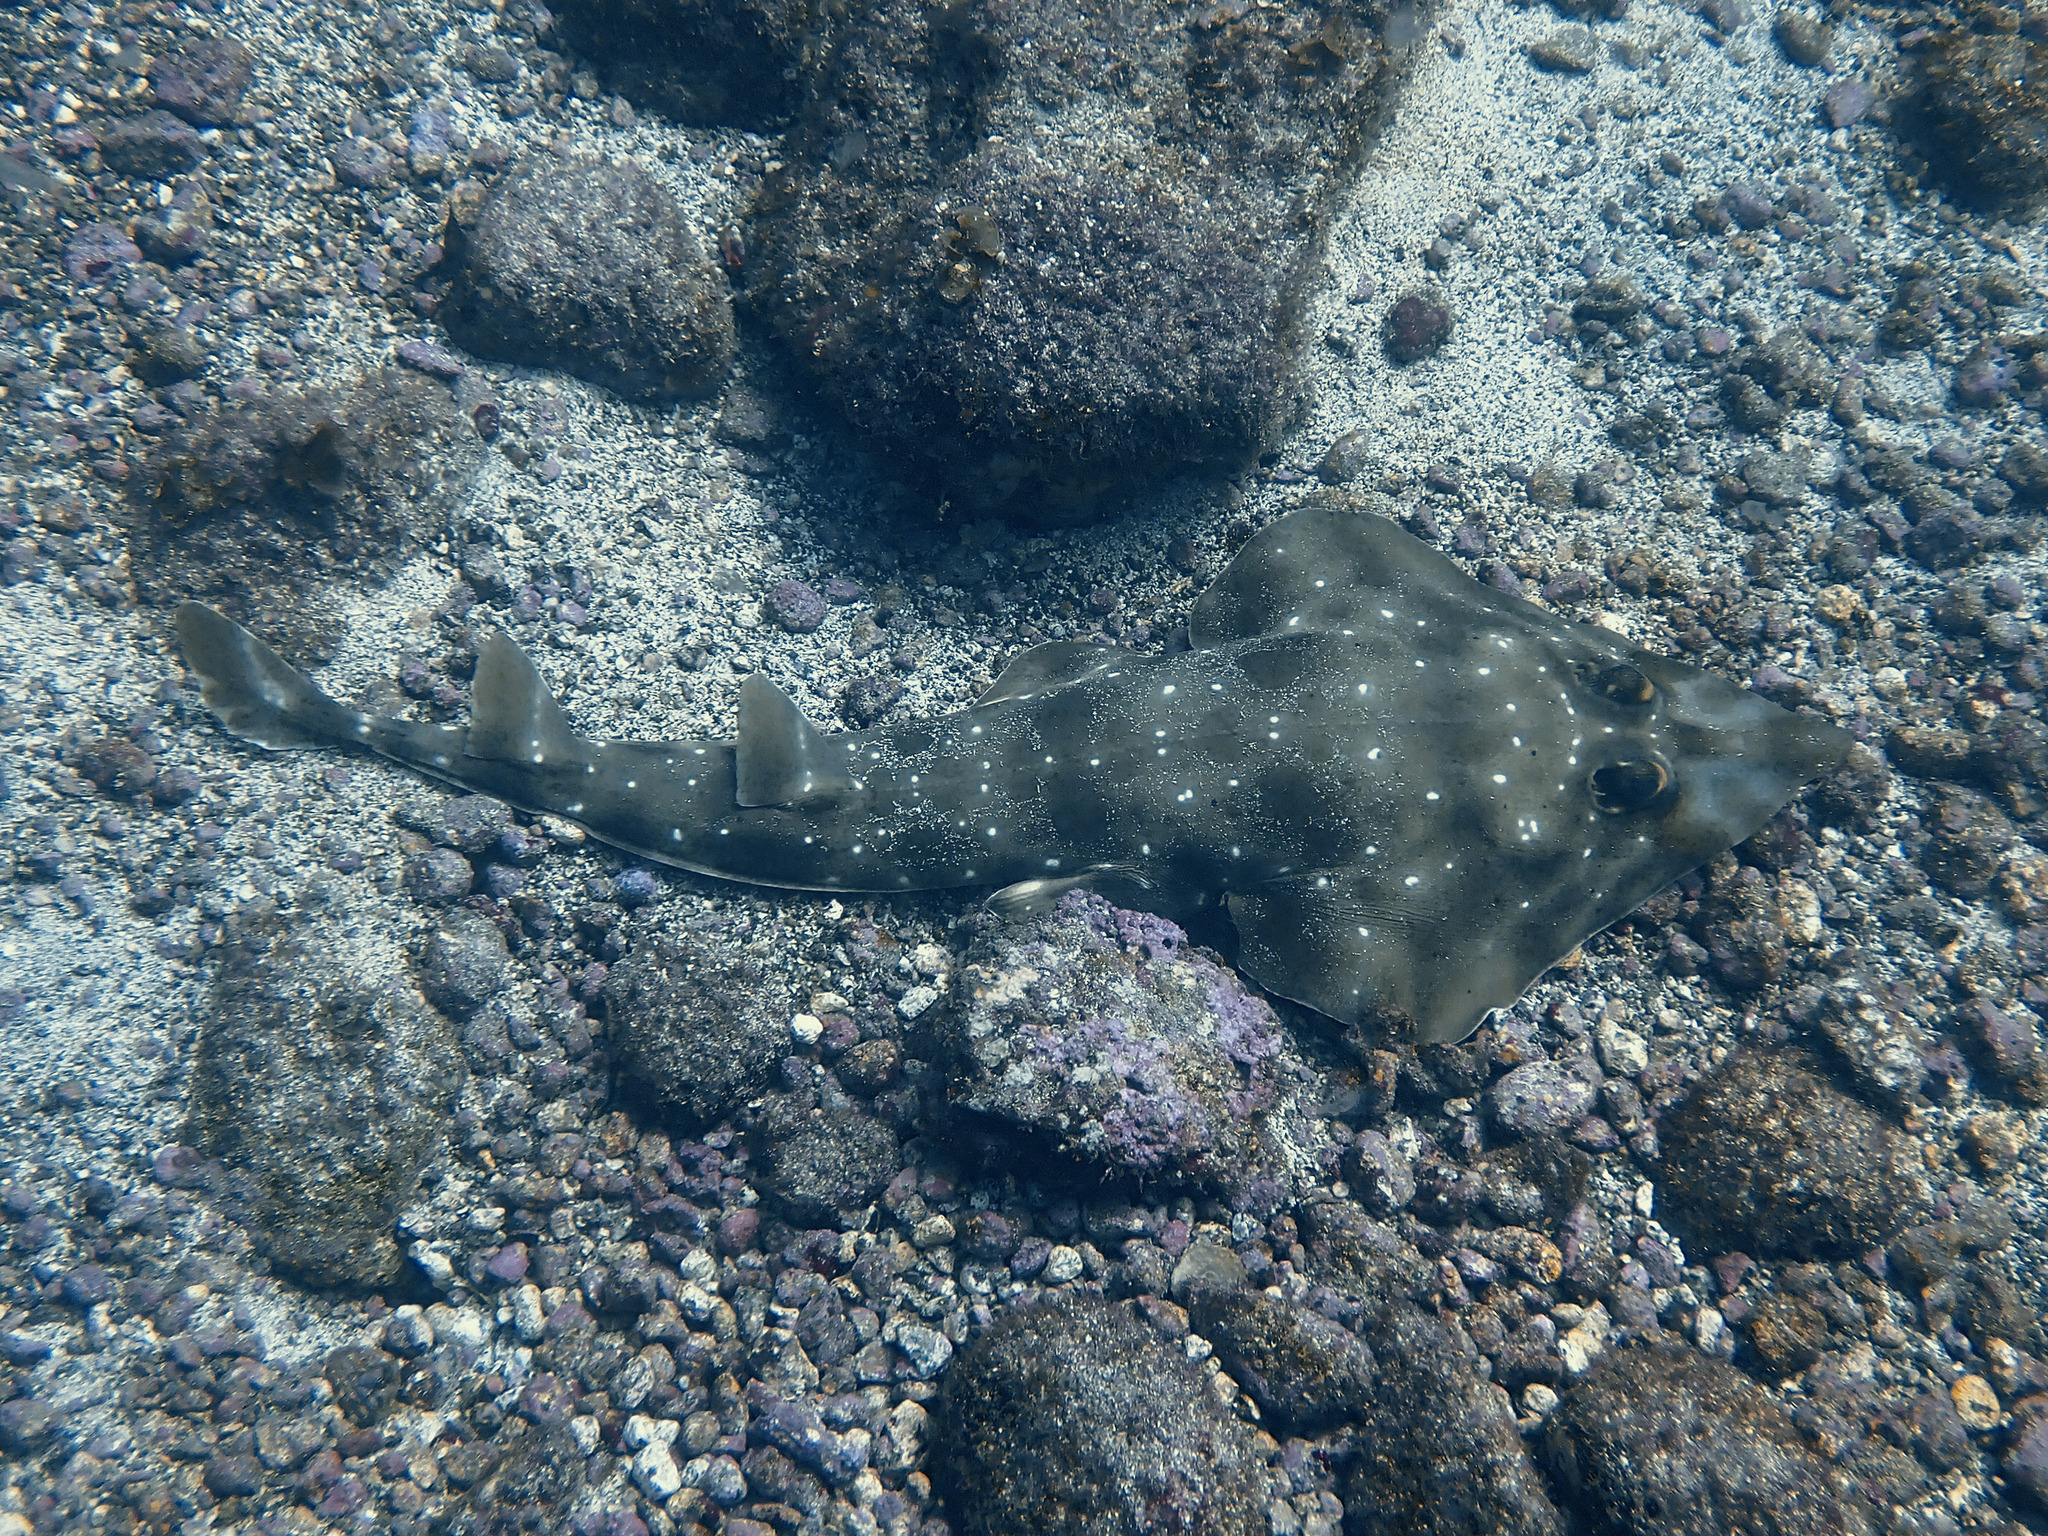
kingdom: Animalia
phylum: Chordata
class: Elasmobranchii
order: Rhinopristiformes
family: Rhinobatidae
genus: Pseudobatos
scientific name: Pseudobatos prahli
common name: Gorgona guitarfish
